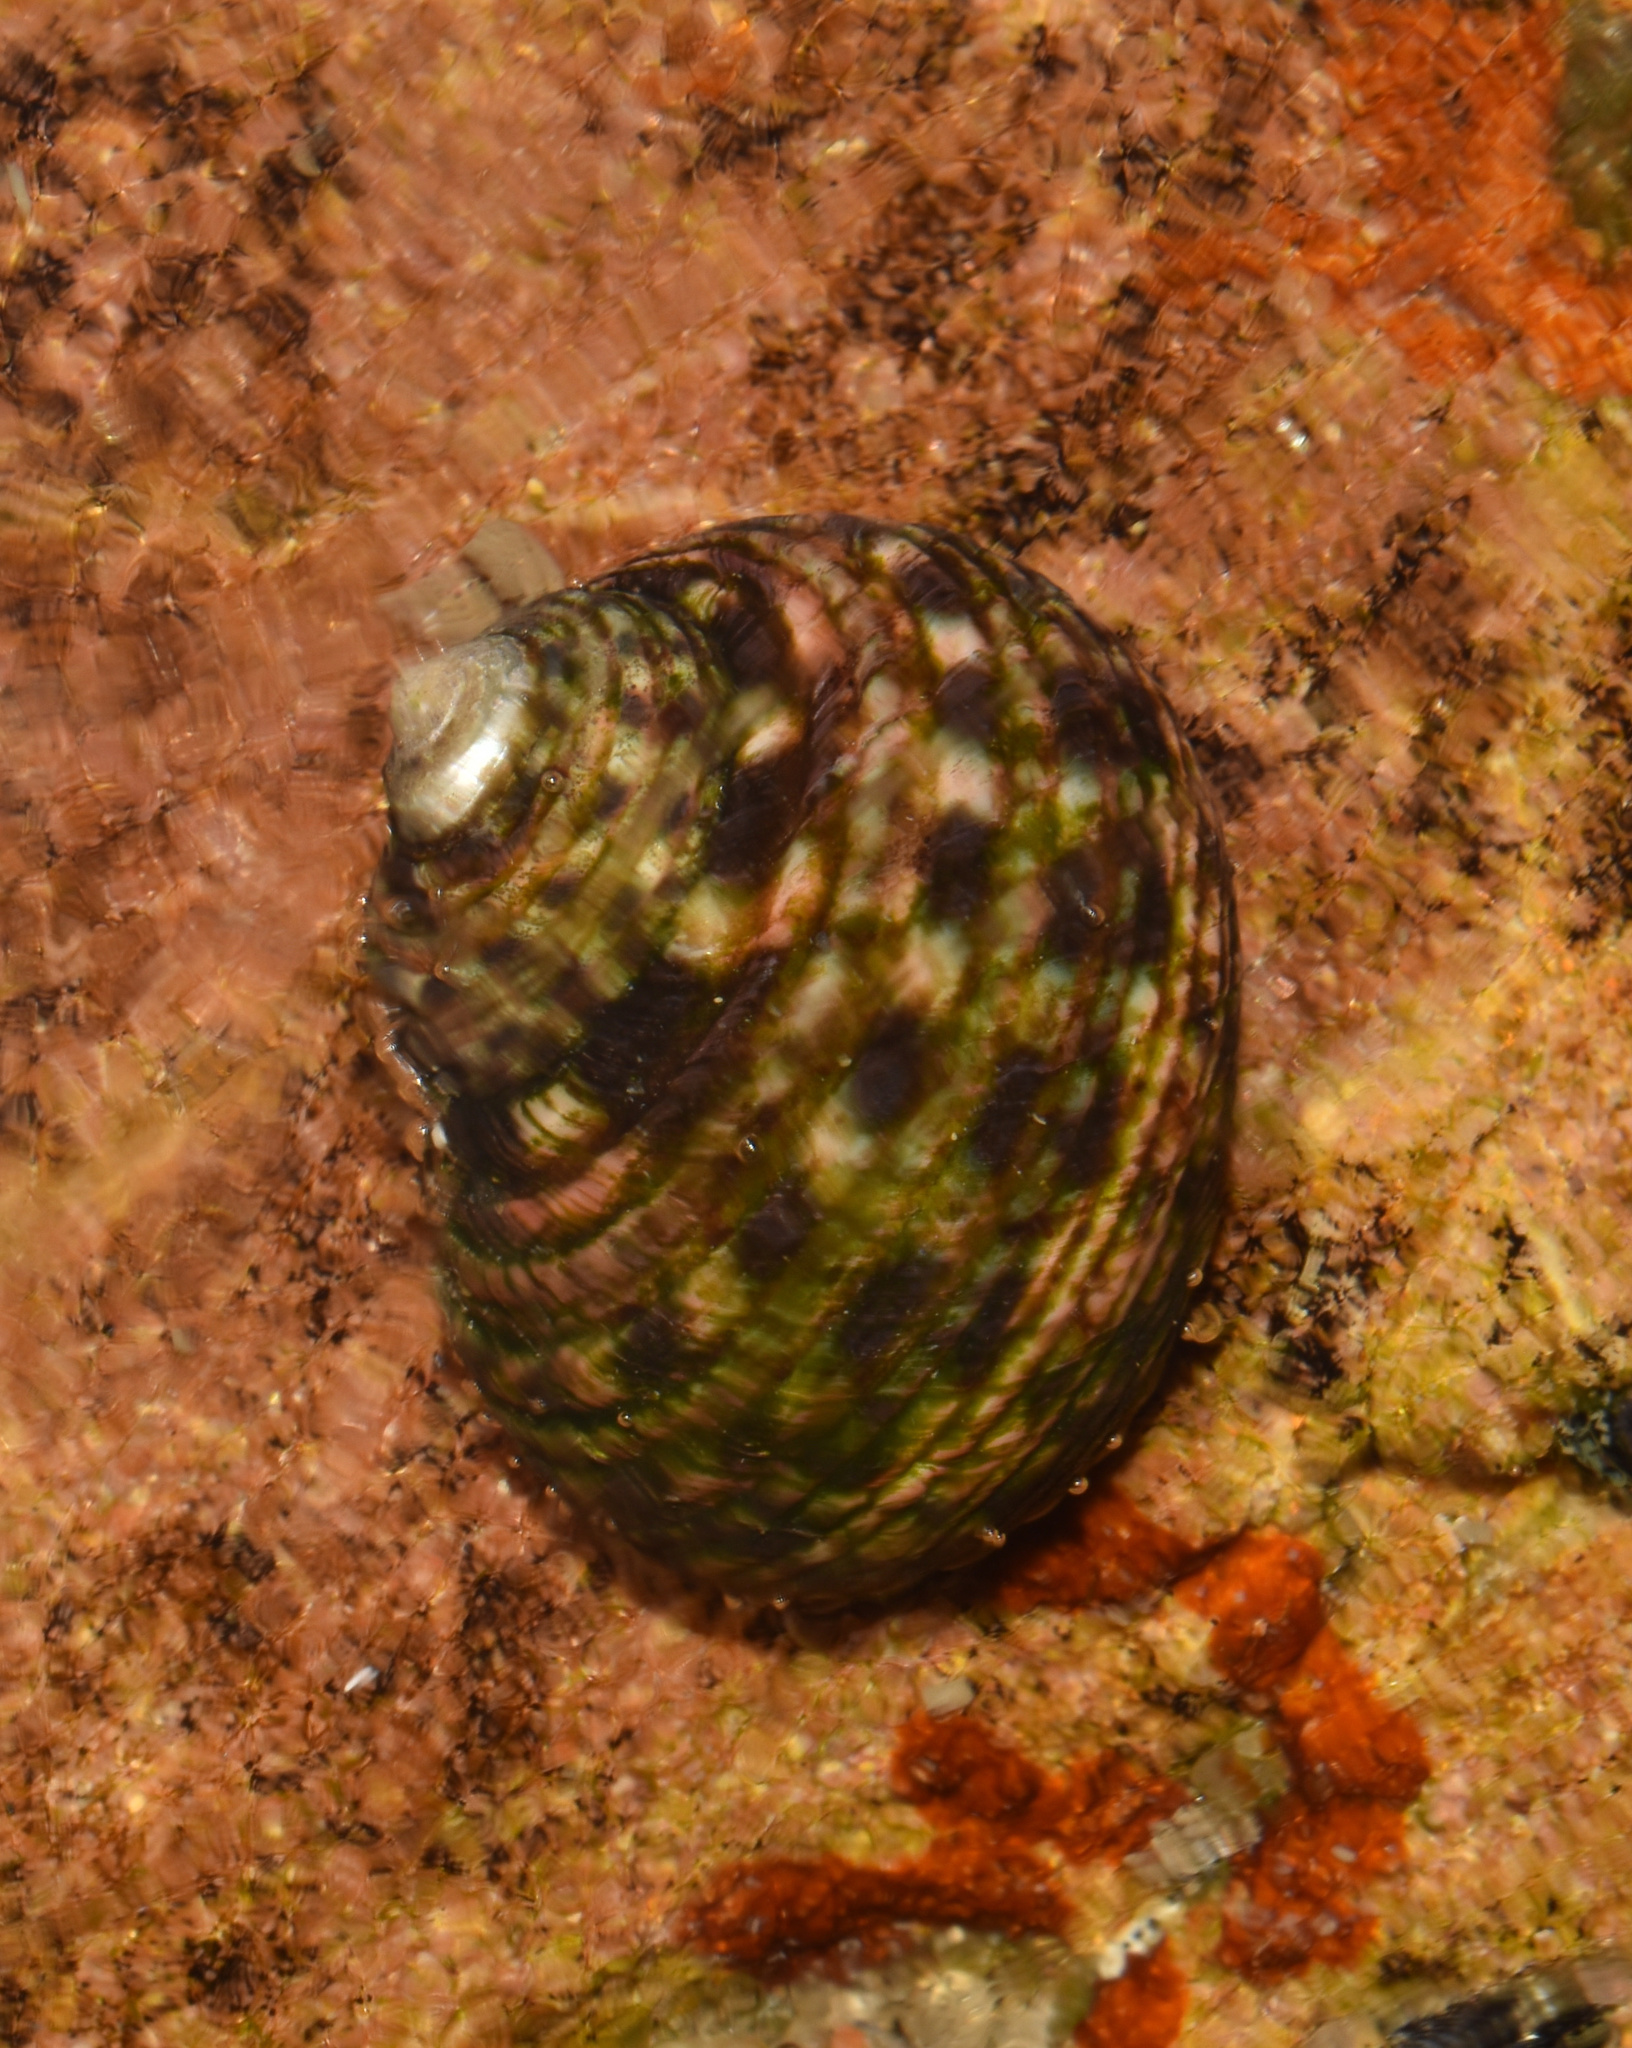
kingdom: Animalia
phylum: Mollusca
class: Gastropoda
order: Trochida
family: Trochidae
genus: Monodonta
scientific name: Monodonta australis
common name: Toothed topshell
